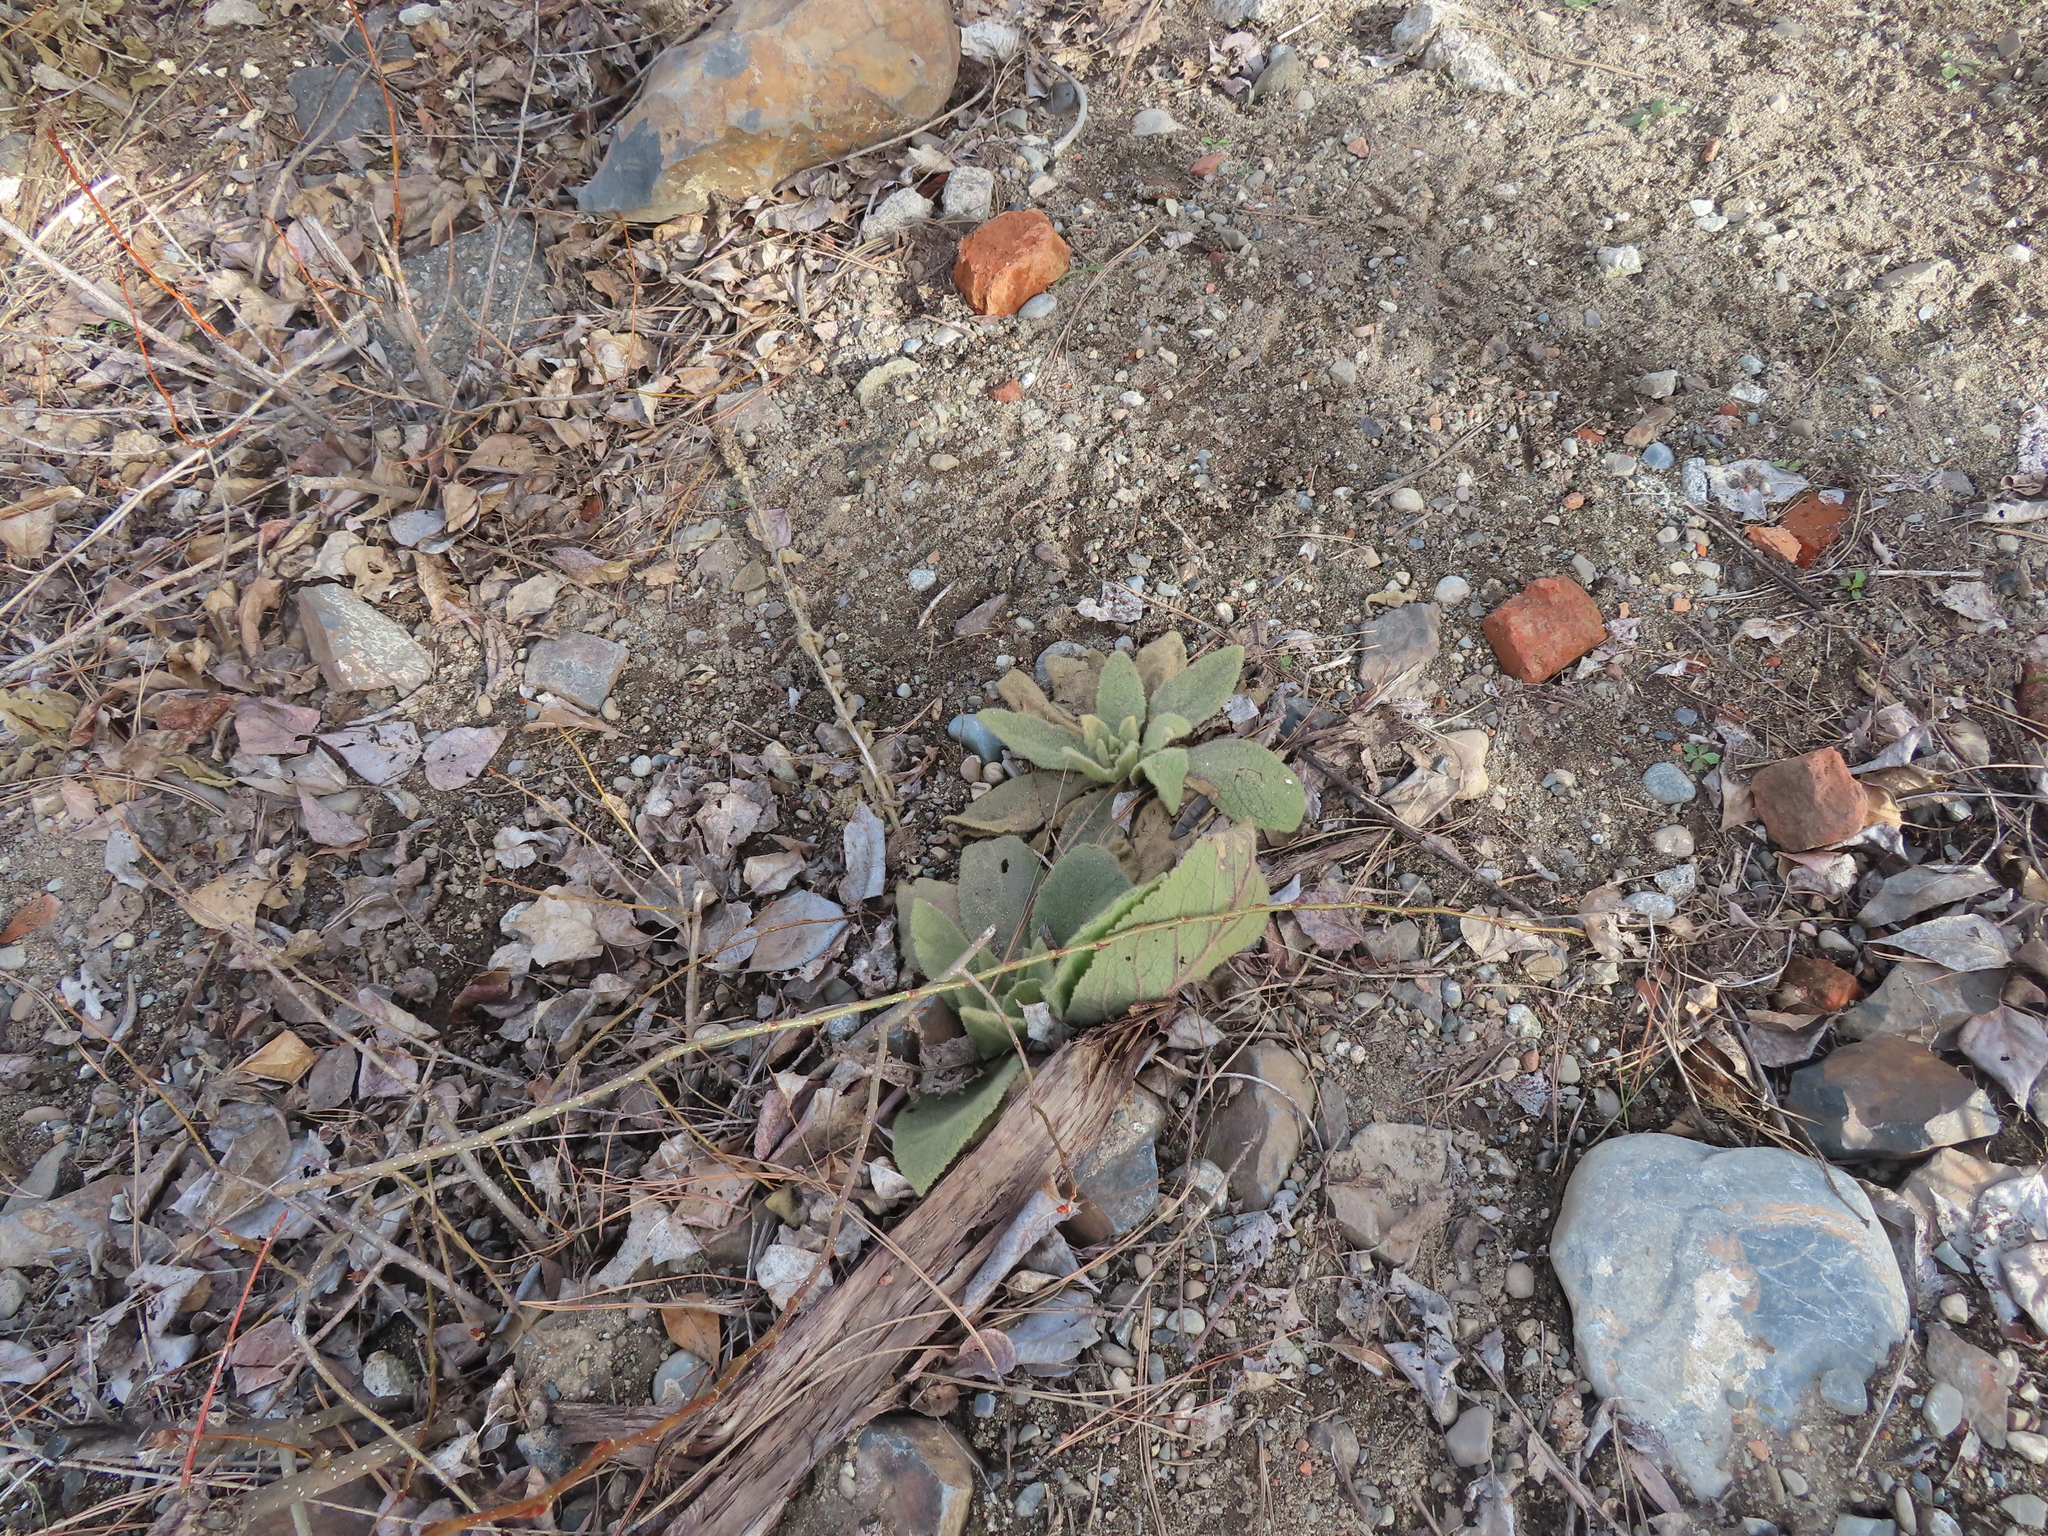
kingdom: Plantae
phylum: Tracheophyta
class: Magnoliopsida
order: Lamiales
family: Scrophulariaceae
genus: Verbascum
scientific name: Verbascum thapsus
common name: Common mullein
